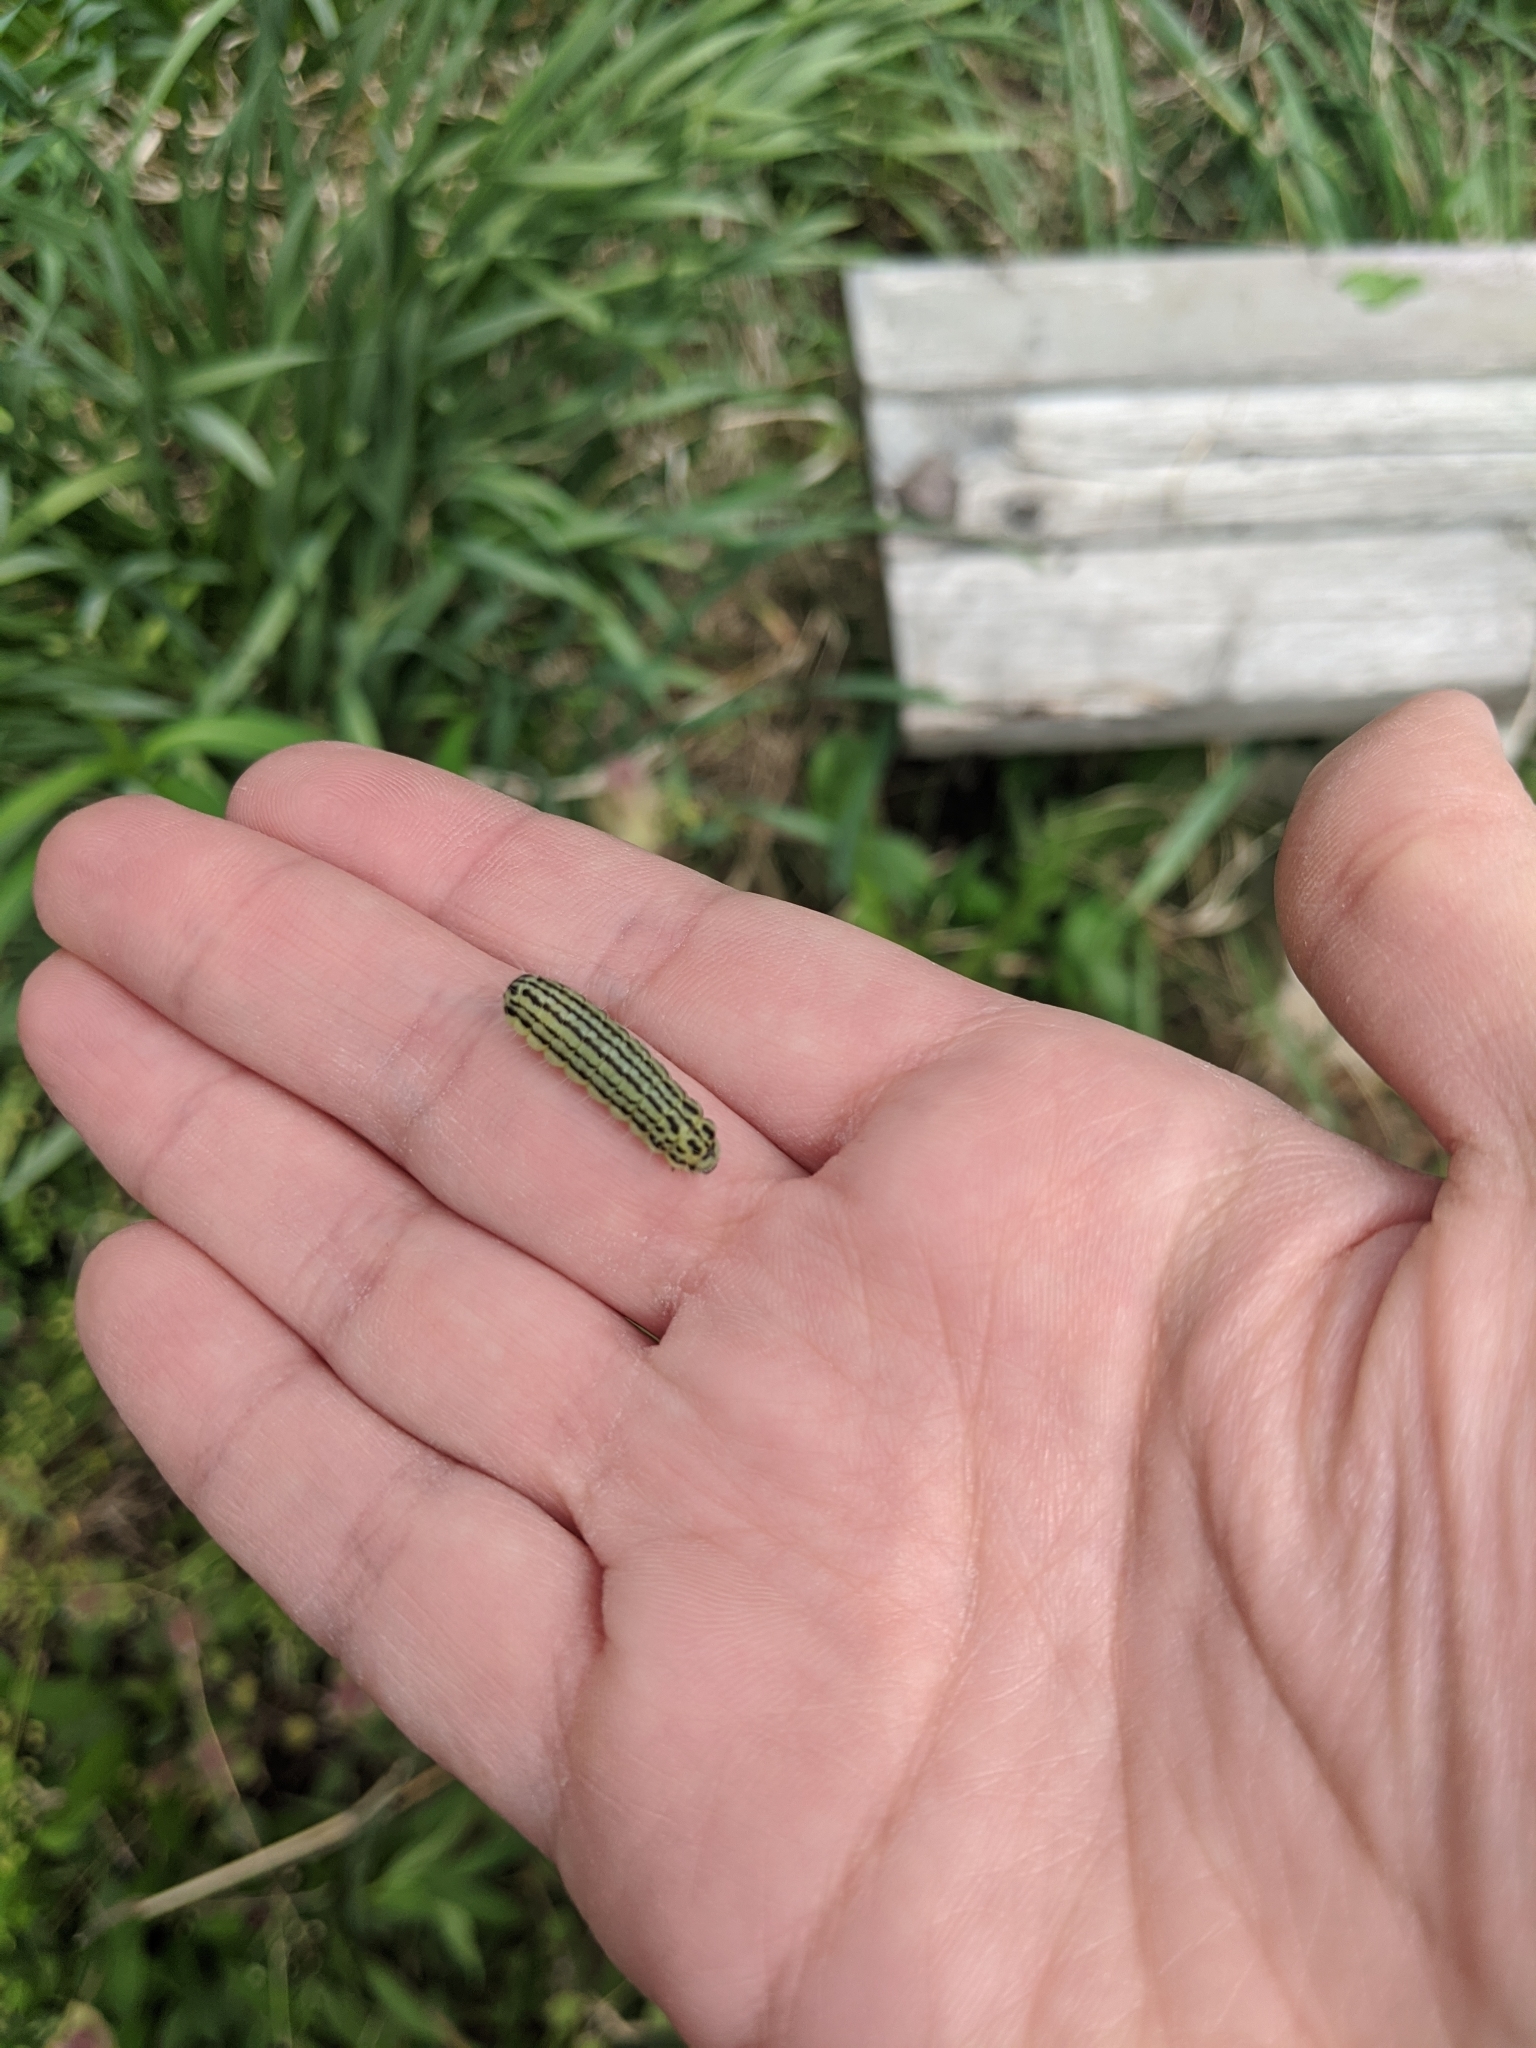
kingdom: Animalia
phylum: Arthropoda
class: Insecta
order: Lepidoptera
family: Zygaenidae
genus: Sinica
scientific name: Sinica sinica
